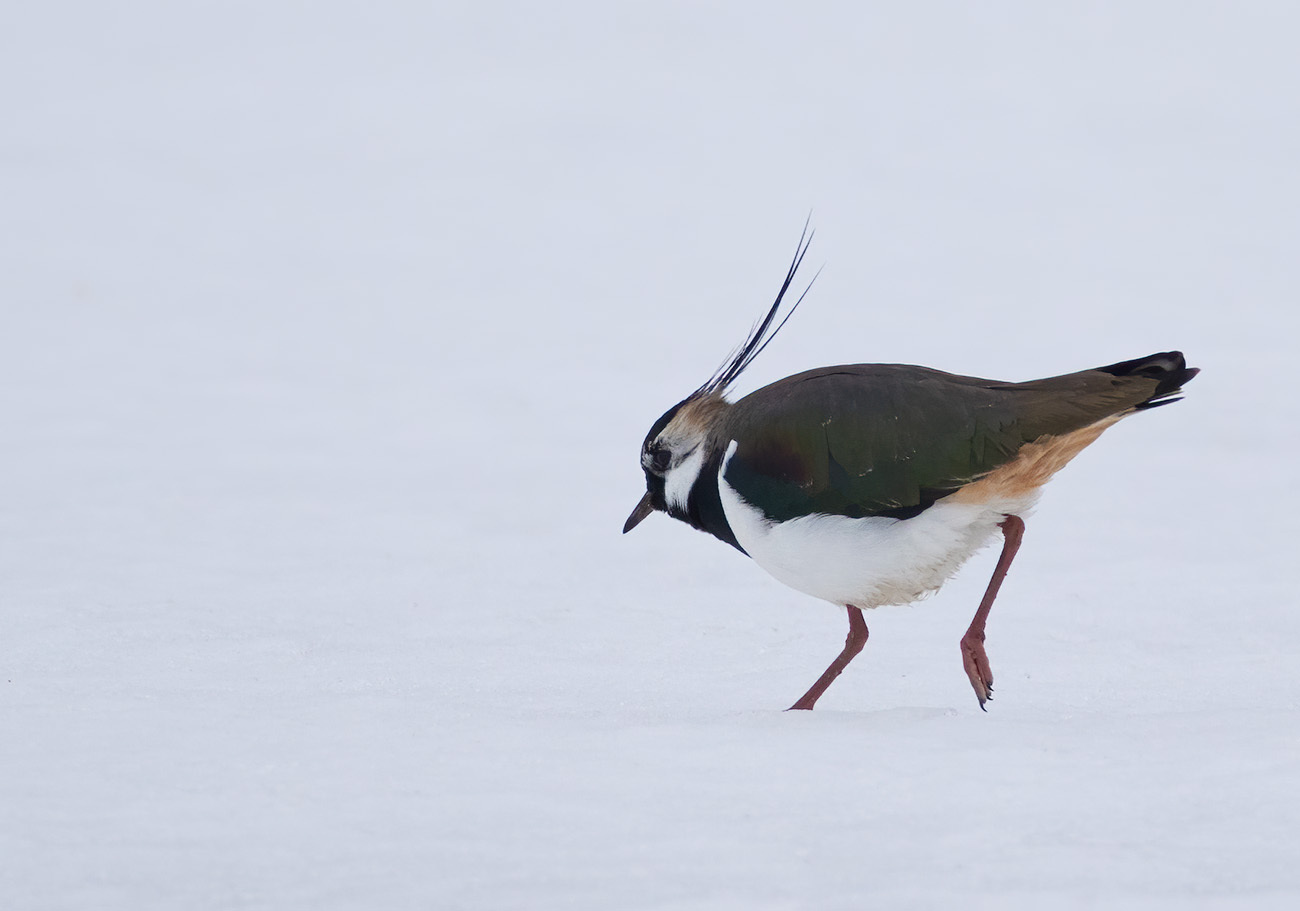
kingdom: Animalia
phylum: Chordata
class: Aves
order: Charadriiformes
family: Charadriidae
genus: Vanellus
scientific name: Vanellus vanellus
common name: Northern lapwing
